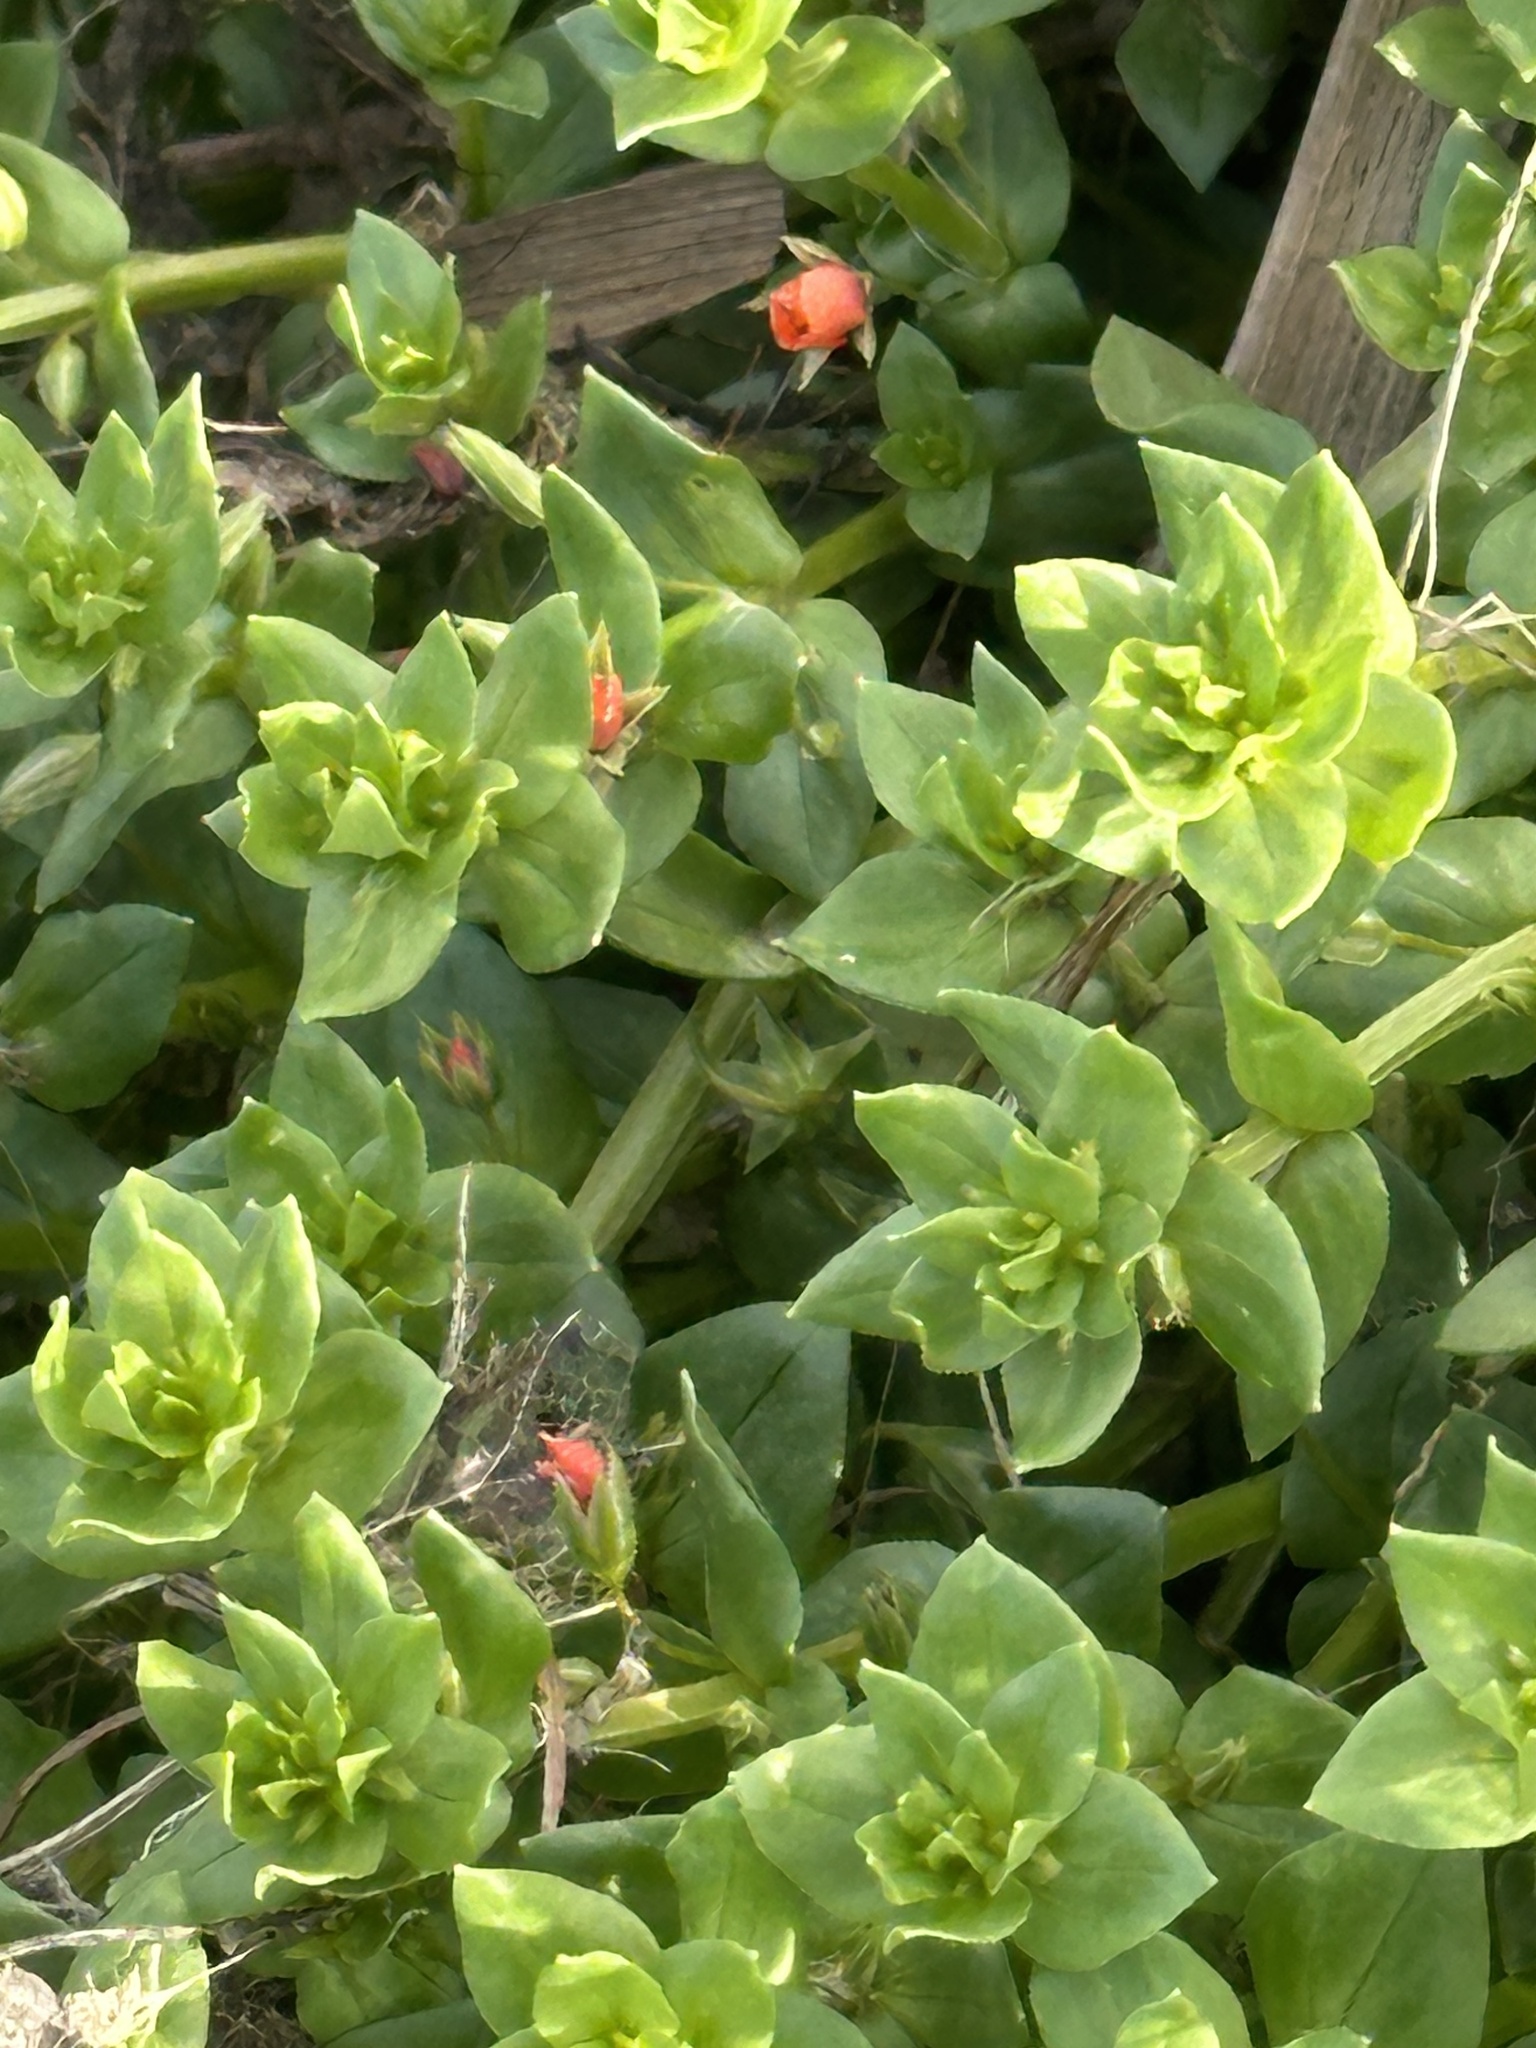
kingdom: Plantae
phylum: Tracheophyta
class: Magnoliopsida
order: Ericales
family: Primulaceae
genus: Lysimachia
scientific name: Lysimachia arvensis
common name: Scarlet pimpernel
